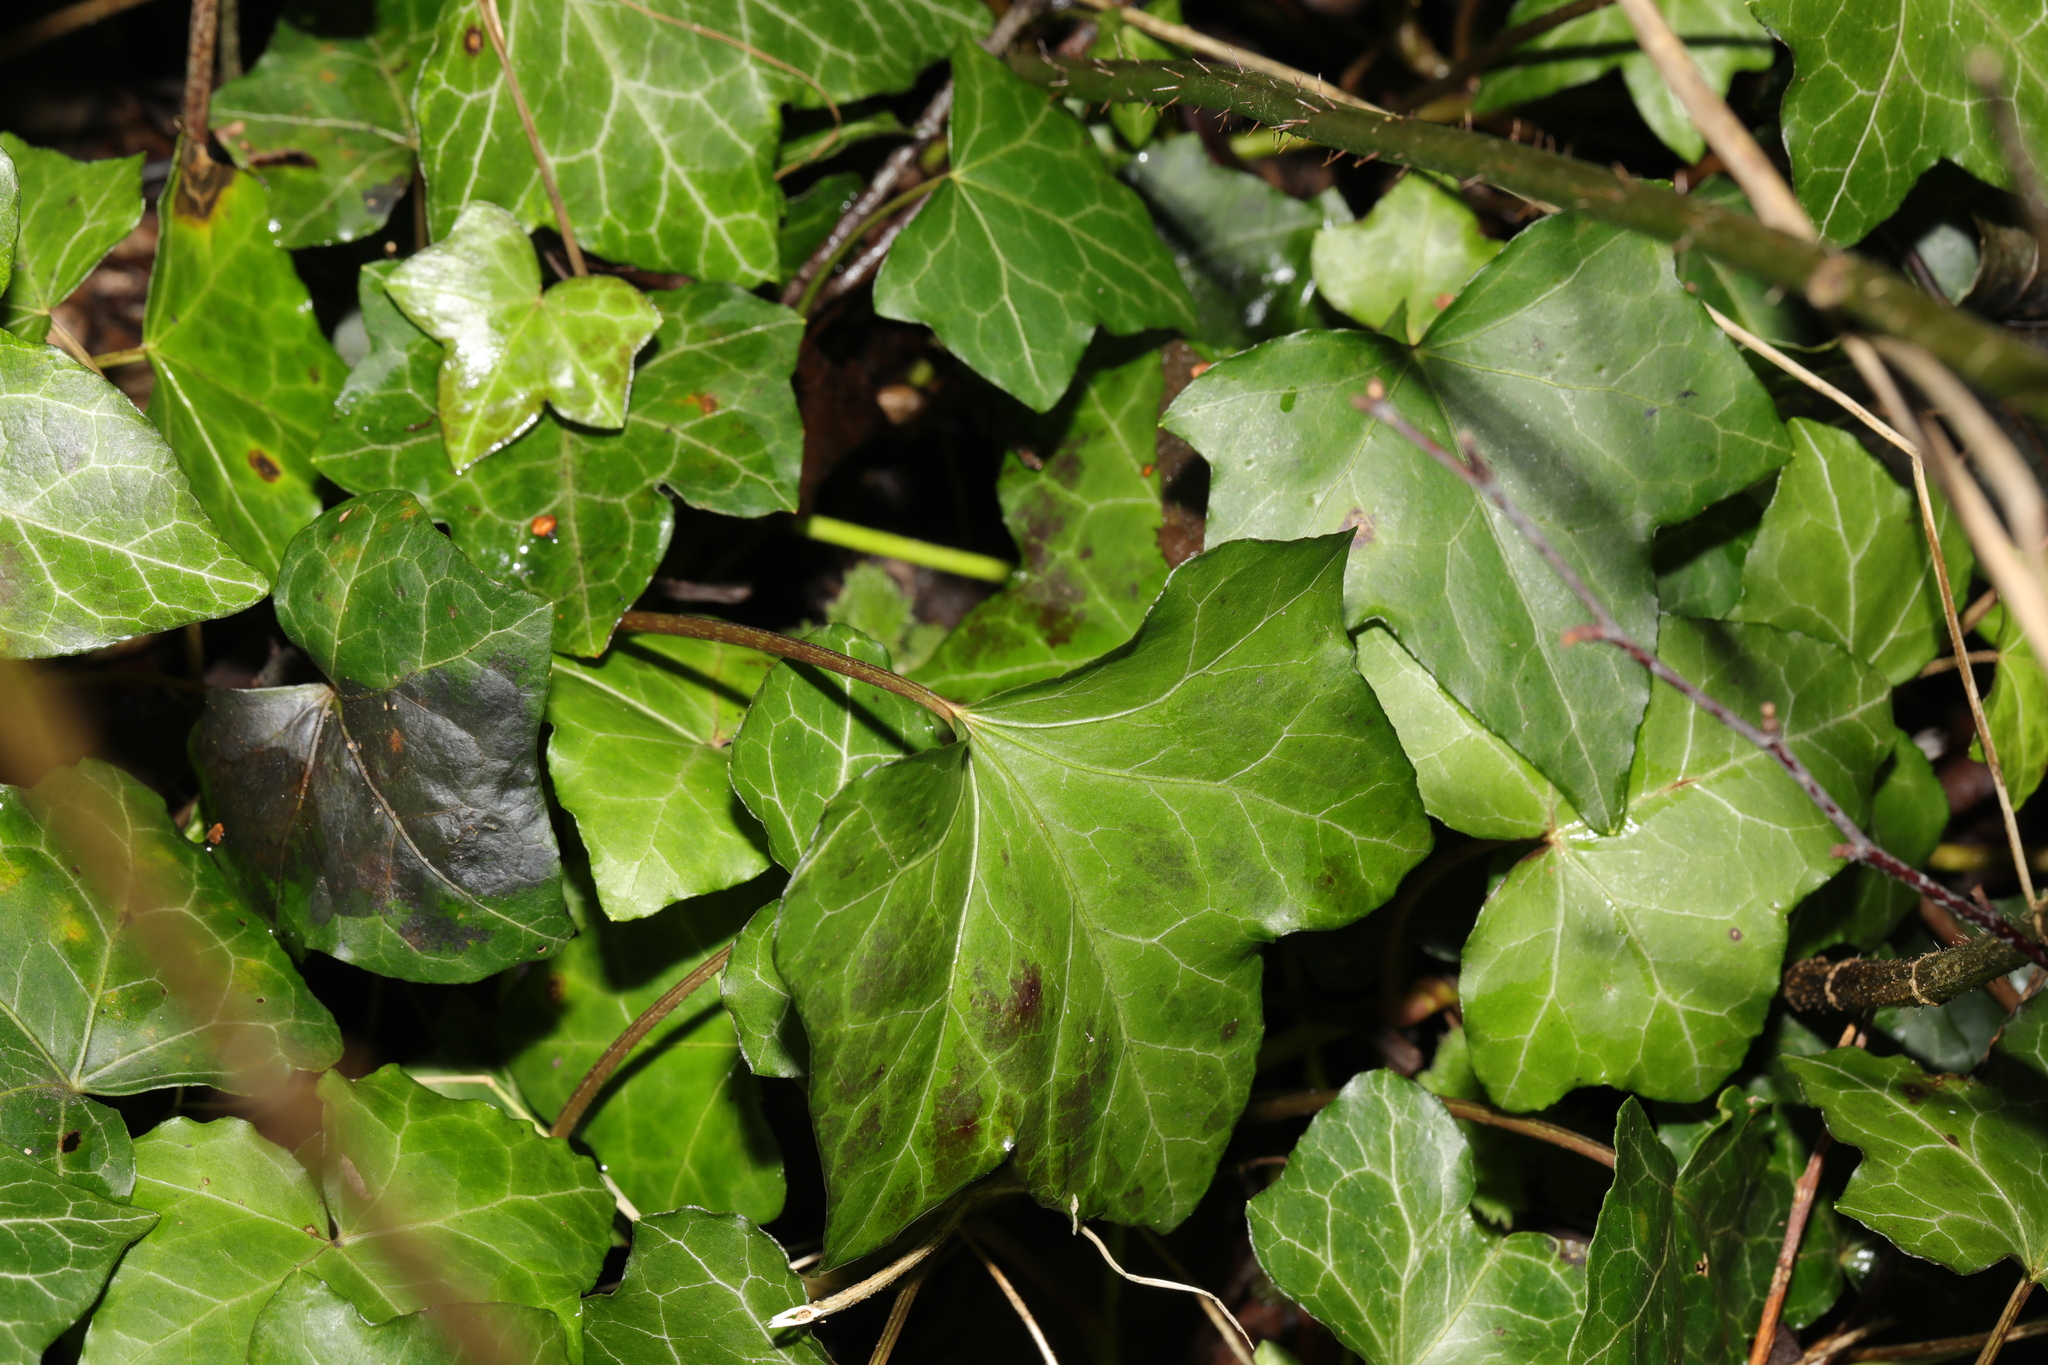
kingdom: Plantae
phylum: Tracheophyta
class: Magnoliopsida
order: Apiales
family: Araliaceae
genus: Hedera
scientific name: Hedera helix
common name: Ivy
